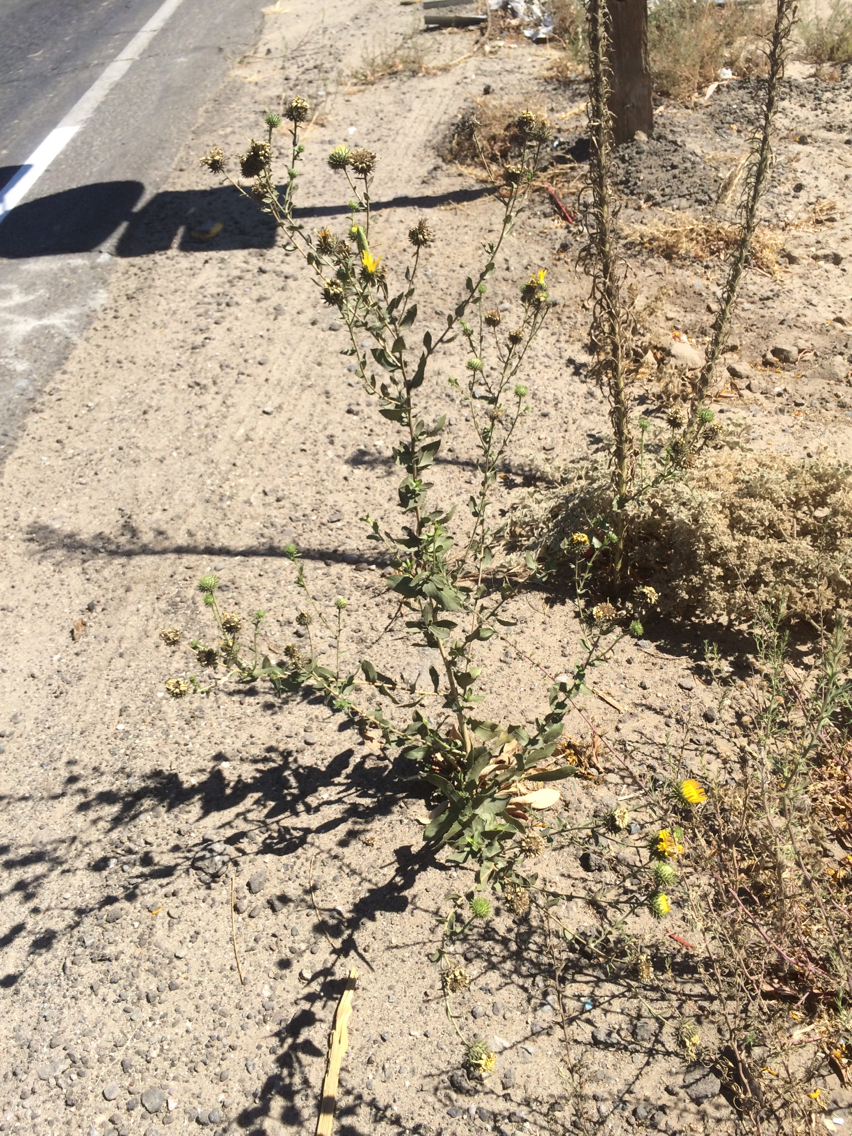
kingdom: Plantae
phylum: Tracheophyta
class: Magnoliopsida
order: Asterales
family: Asteraceae
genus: Grindelia
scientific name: Grindelia hirsutula
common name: Hairy gumweed
